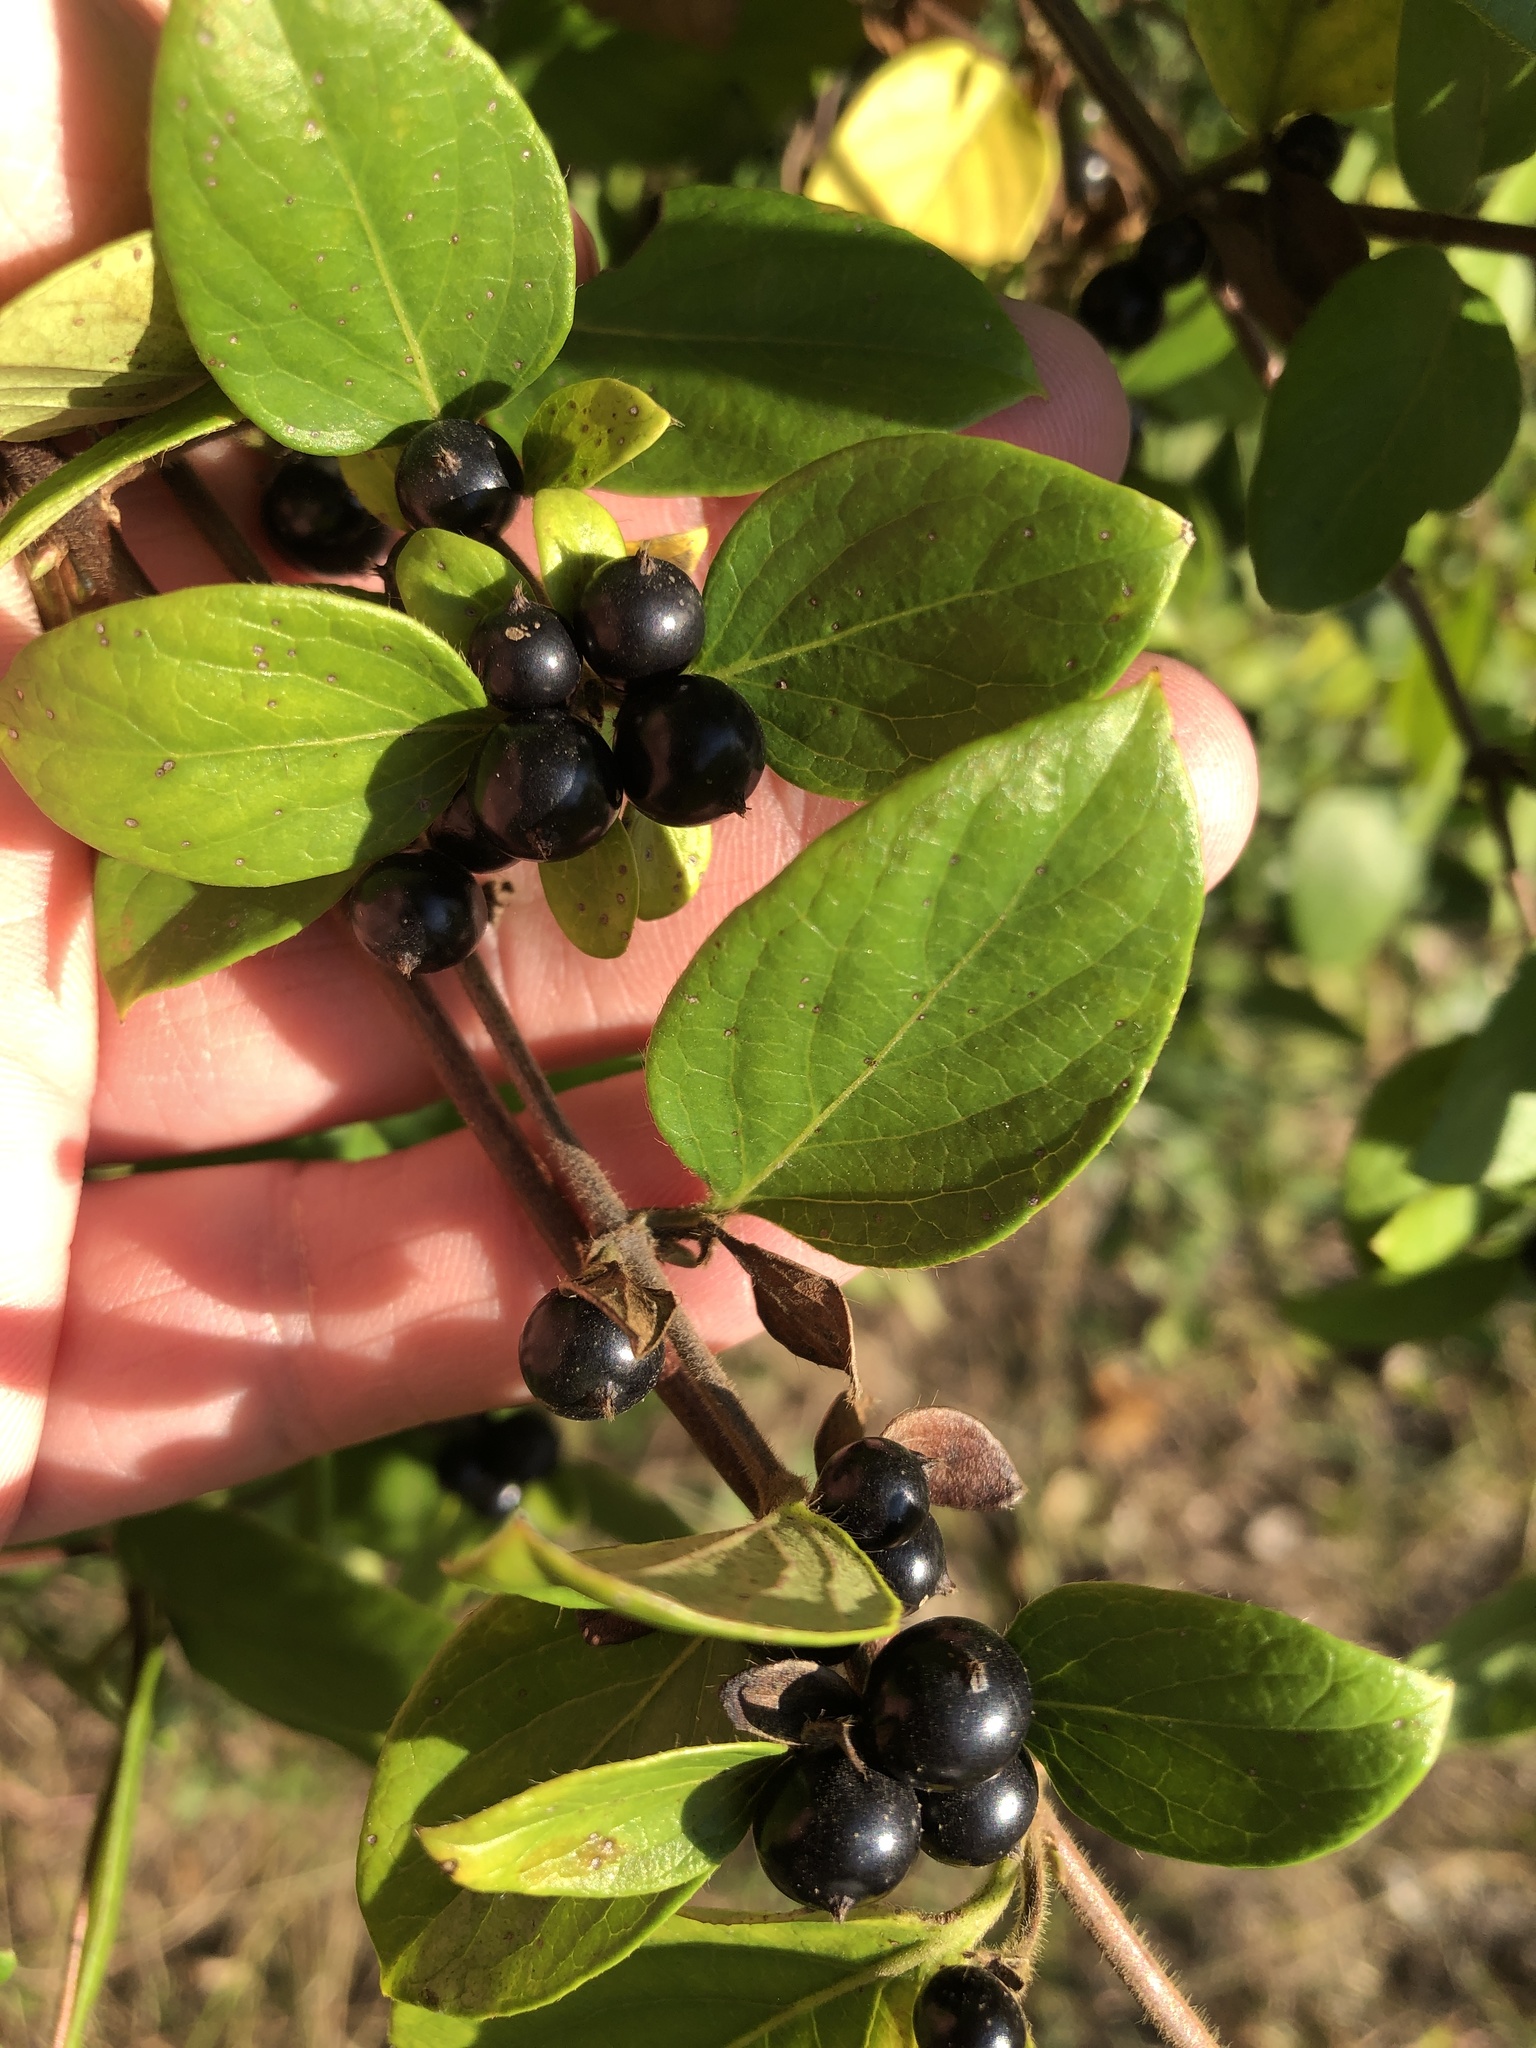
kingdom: Plantae
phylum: Tracheophyta
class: Magnoliopsida
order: Dipsacales
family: Caprifoliaceae
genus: Lonicera
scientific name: Lonicera japonica
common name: Japanese honeysuckle
